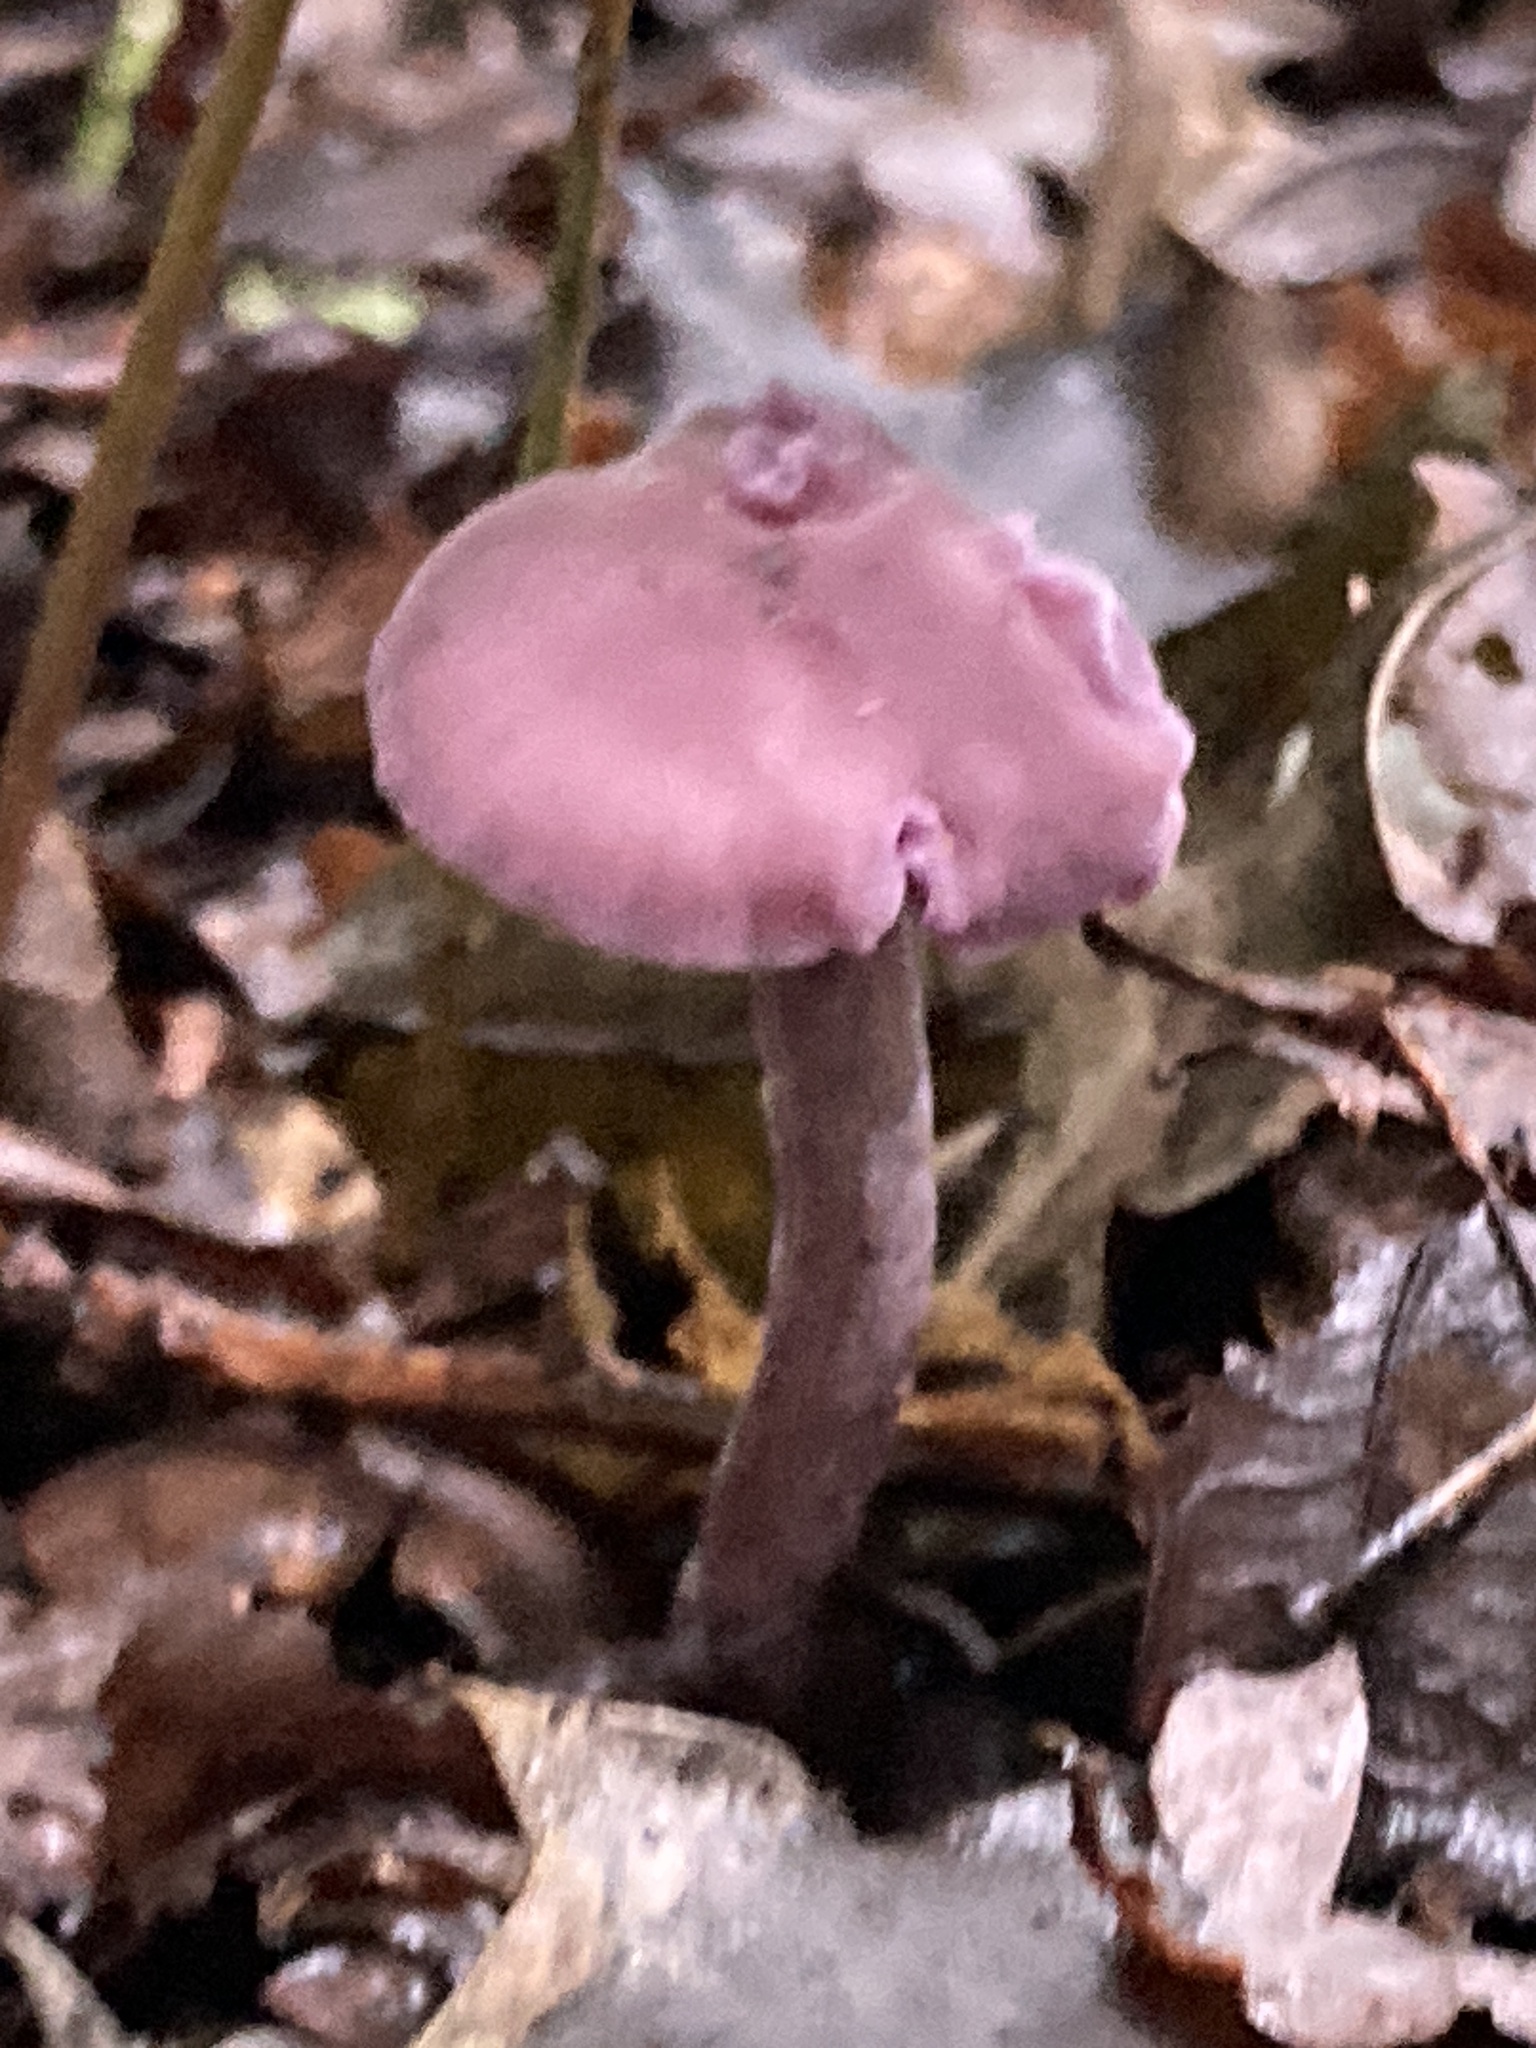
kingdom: Fungi
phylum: Basidiomycota
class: Agaricomycetes
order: Agaricales
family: Hydnangiaceae
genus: Laccaria
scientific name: Laccaria amethystina
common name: Amethyst deceiver
